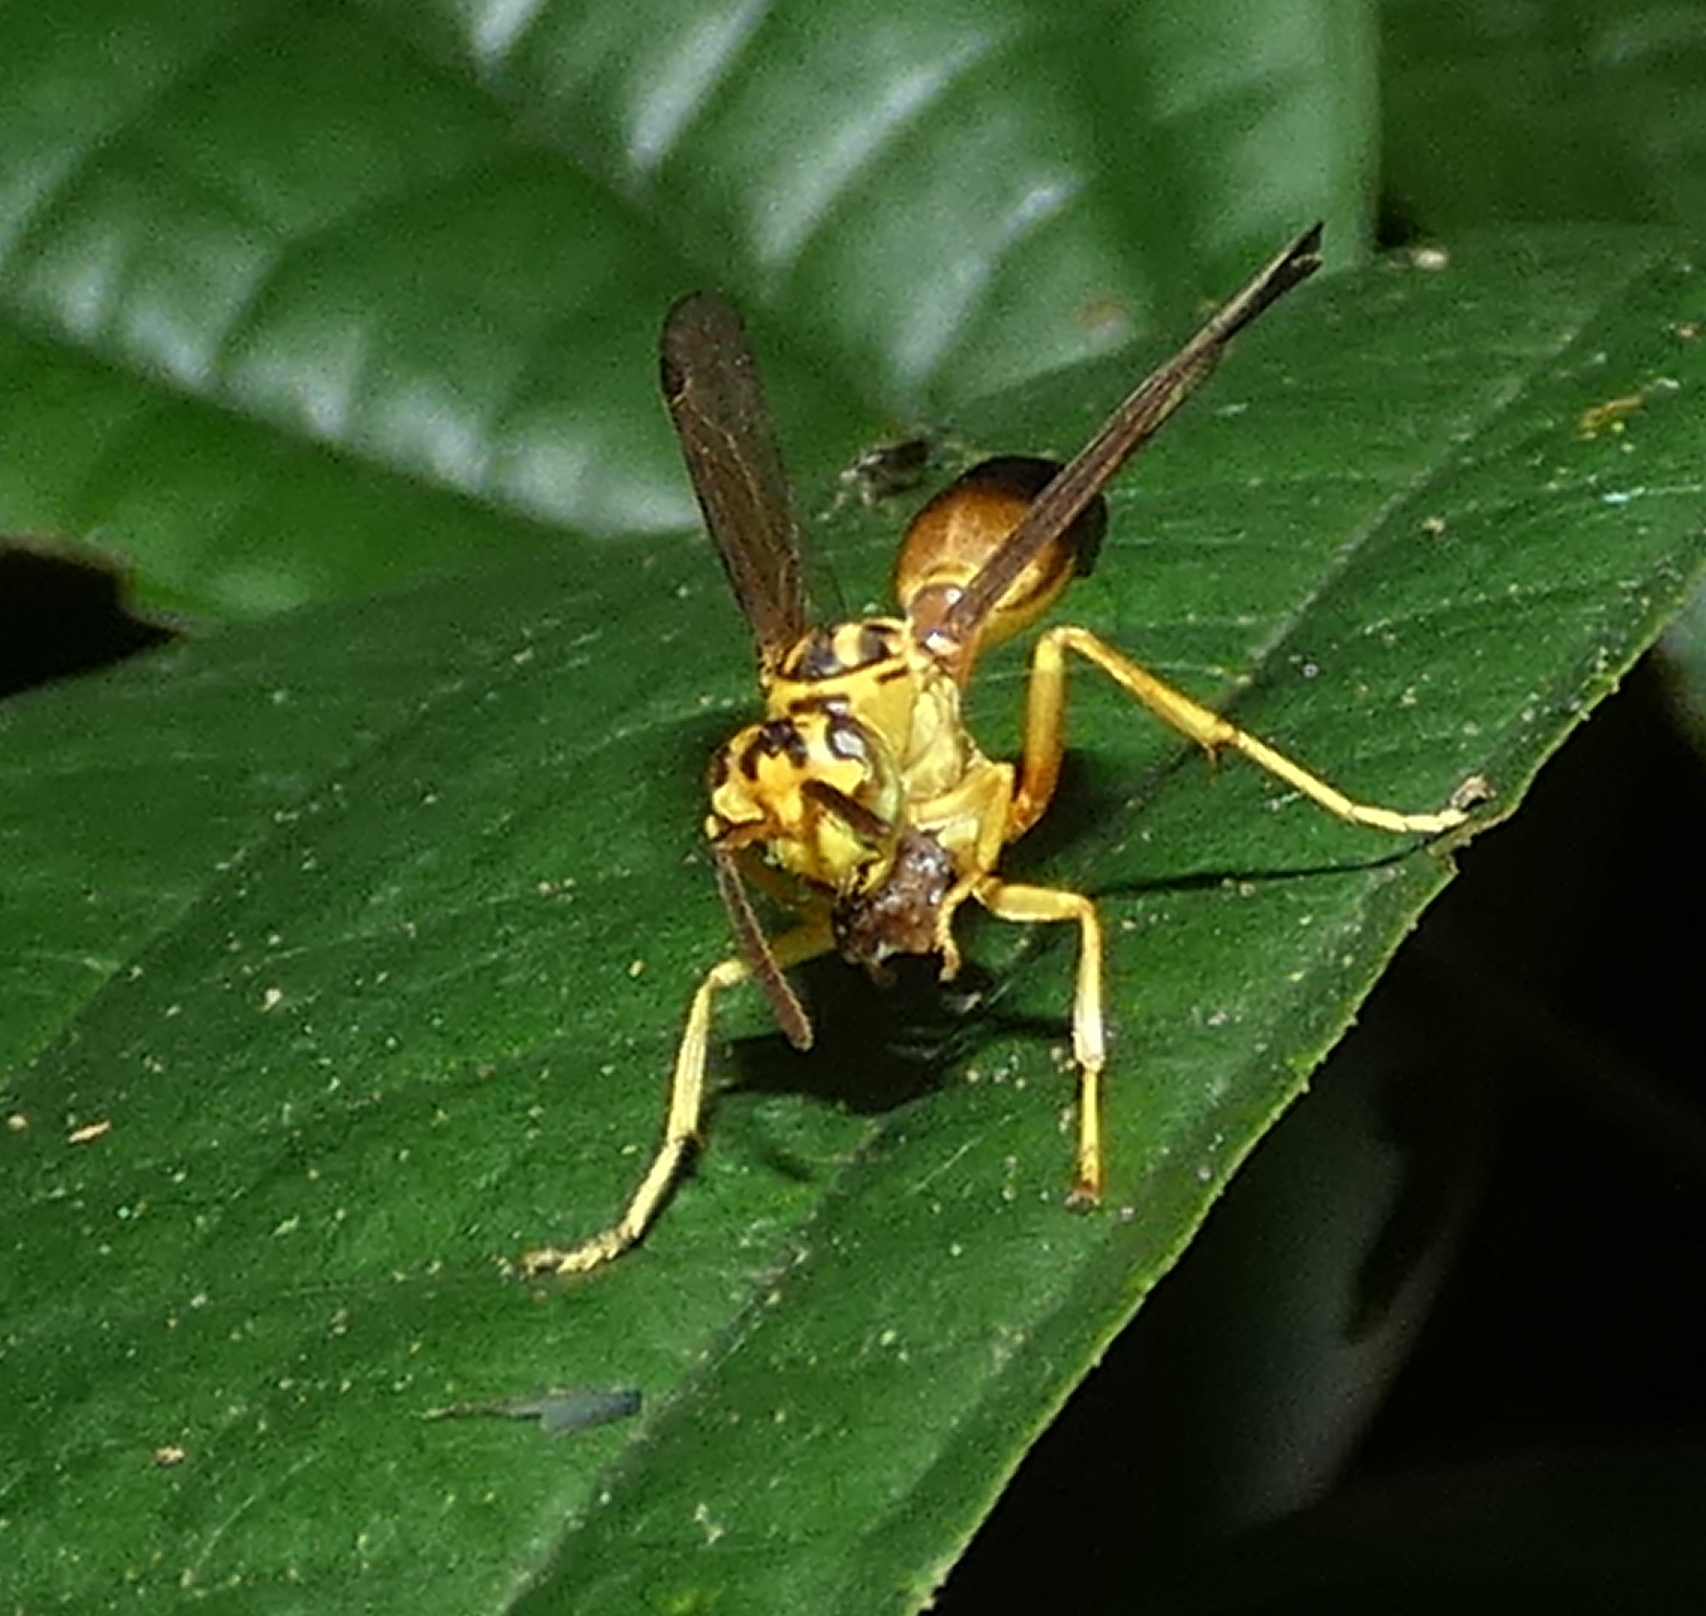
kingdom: Animalia
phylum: Arthropoda
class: Insecta
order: Hymenoptera
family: Vespidae
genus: Agelaia
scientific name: Agelaia pallipes
